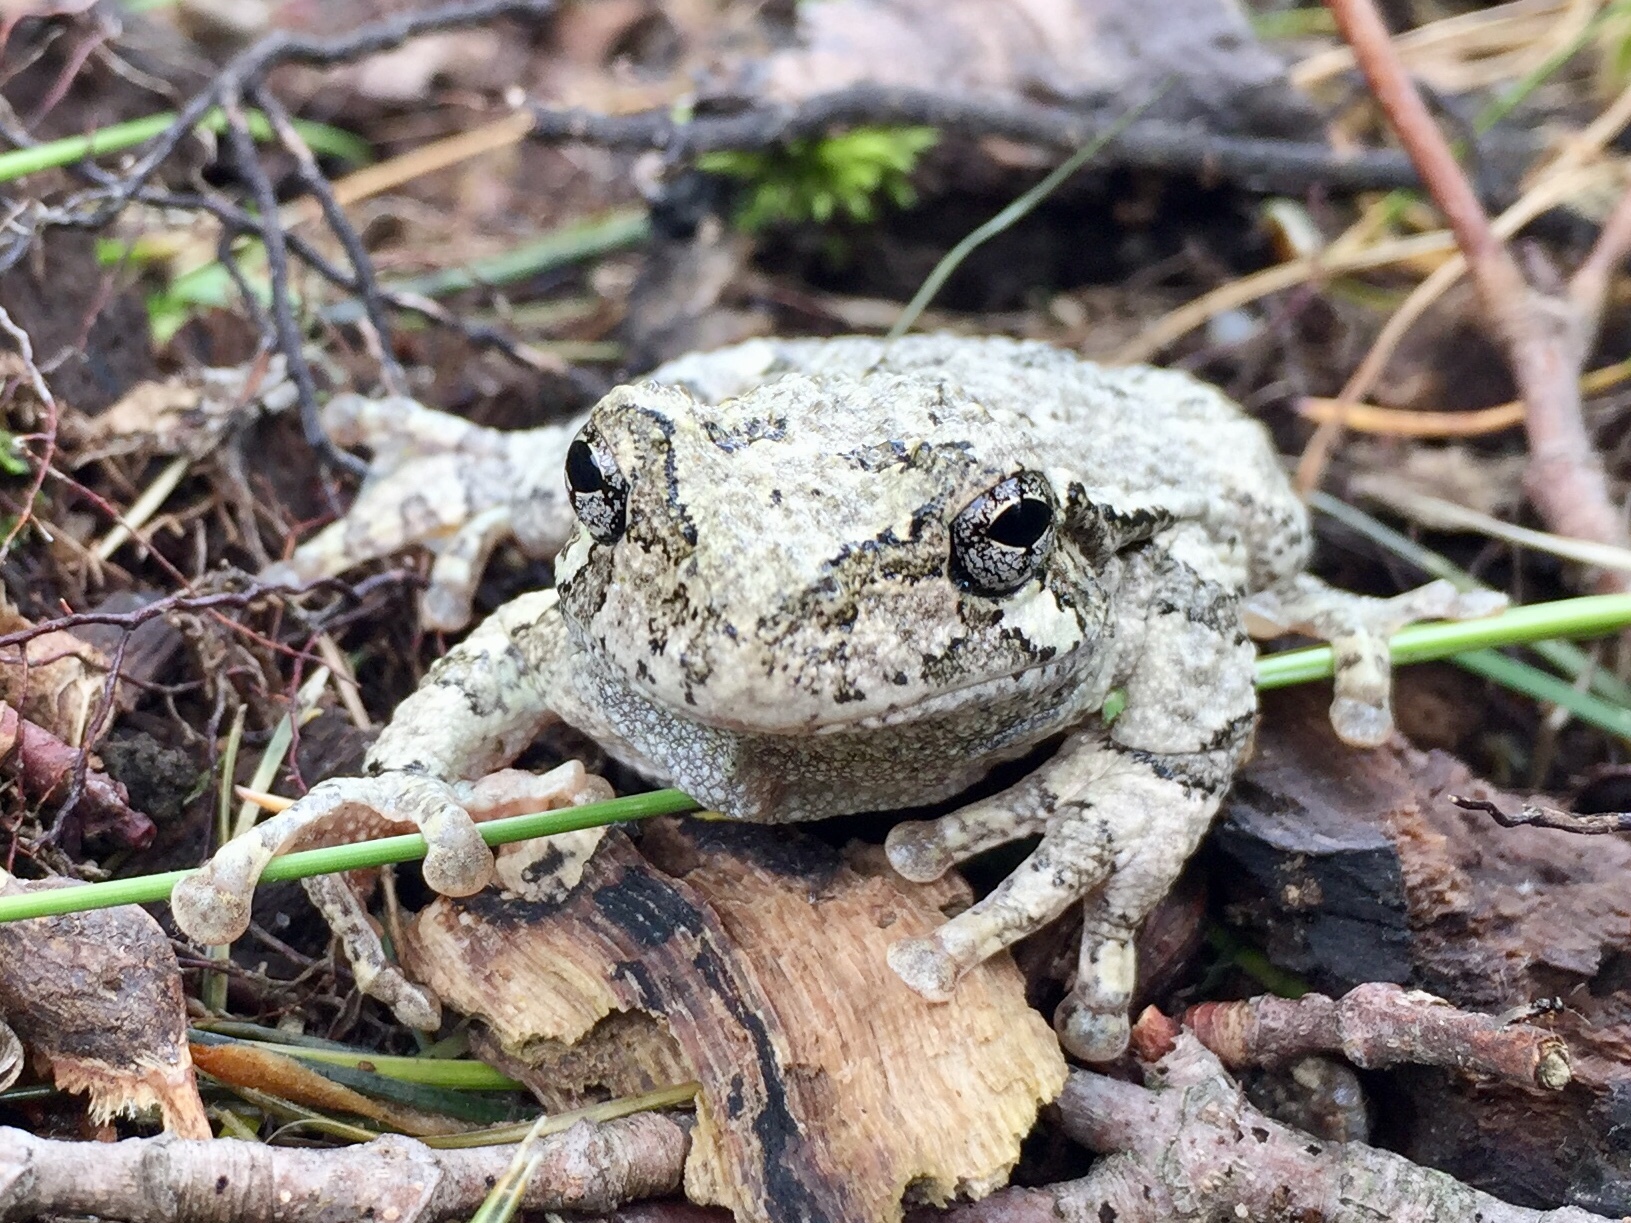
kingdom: Animalia
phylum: Chordata
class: Amphibia
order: Anura
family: Hylidae
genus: Dryophytes
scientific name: Dryophytes versicolor
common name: Gray treefrog
